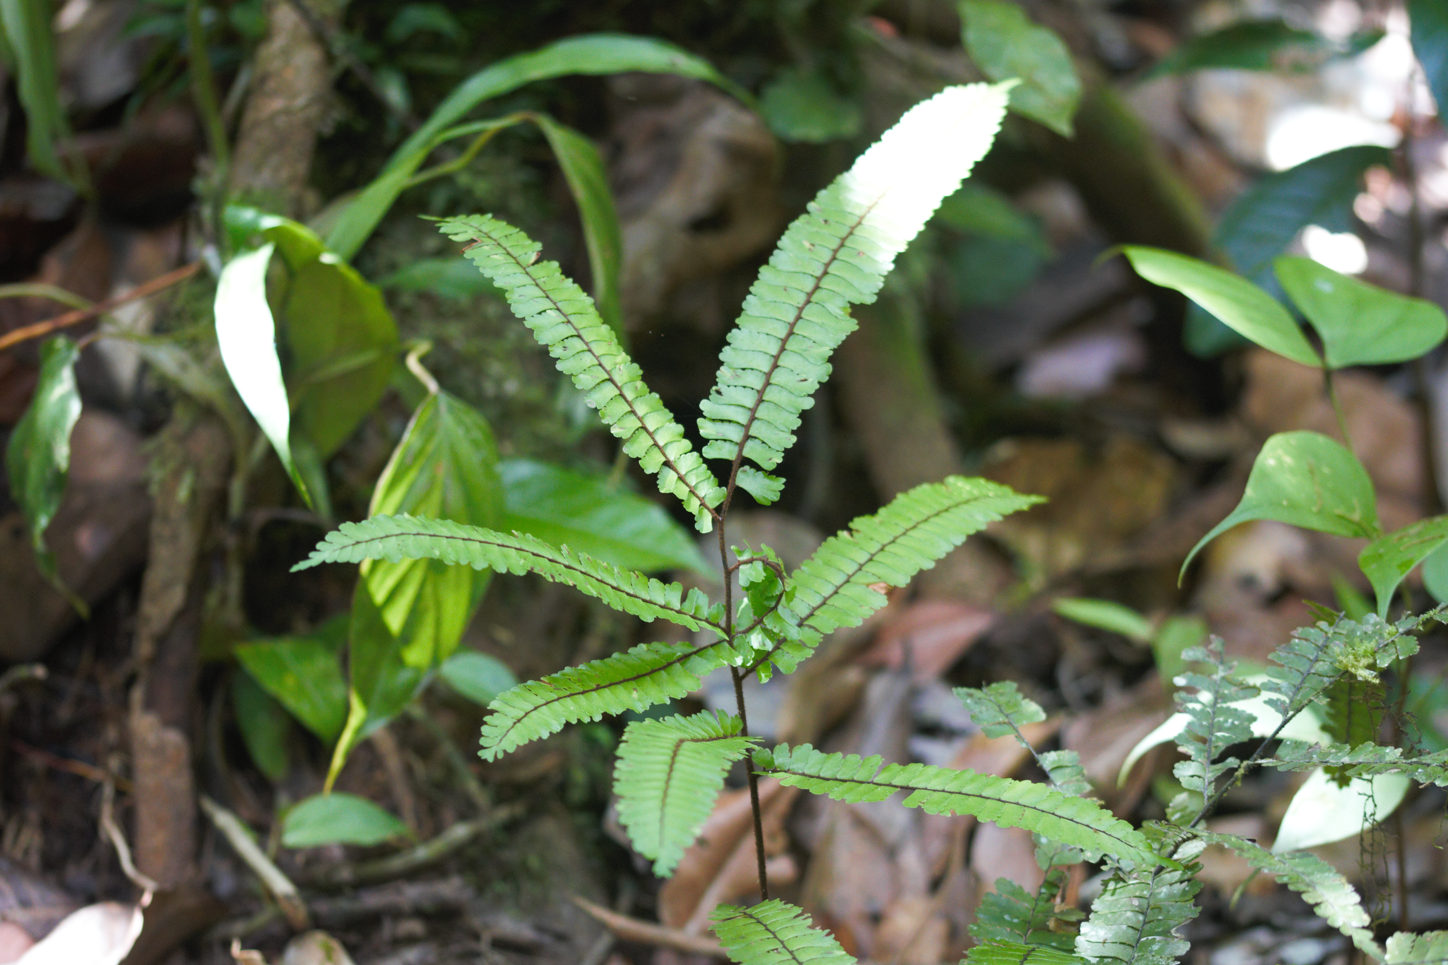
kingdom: Plantae
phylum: Tracheophyta
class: Polypodiopsida
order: Polypodiales
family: Pteridaceae
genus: Adiantum
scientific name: Adiantum cajennense
